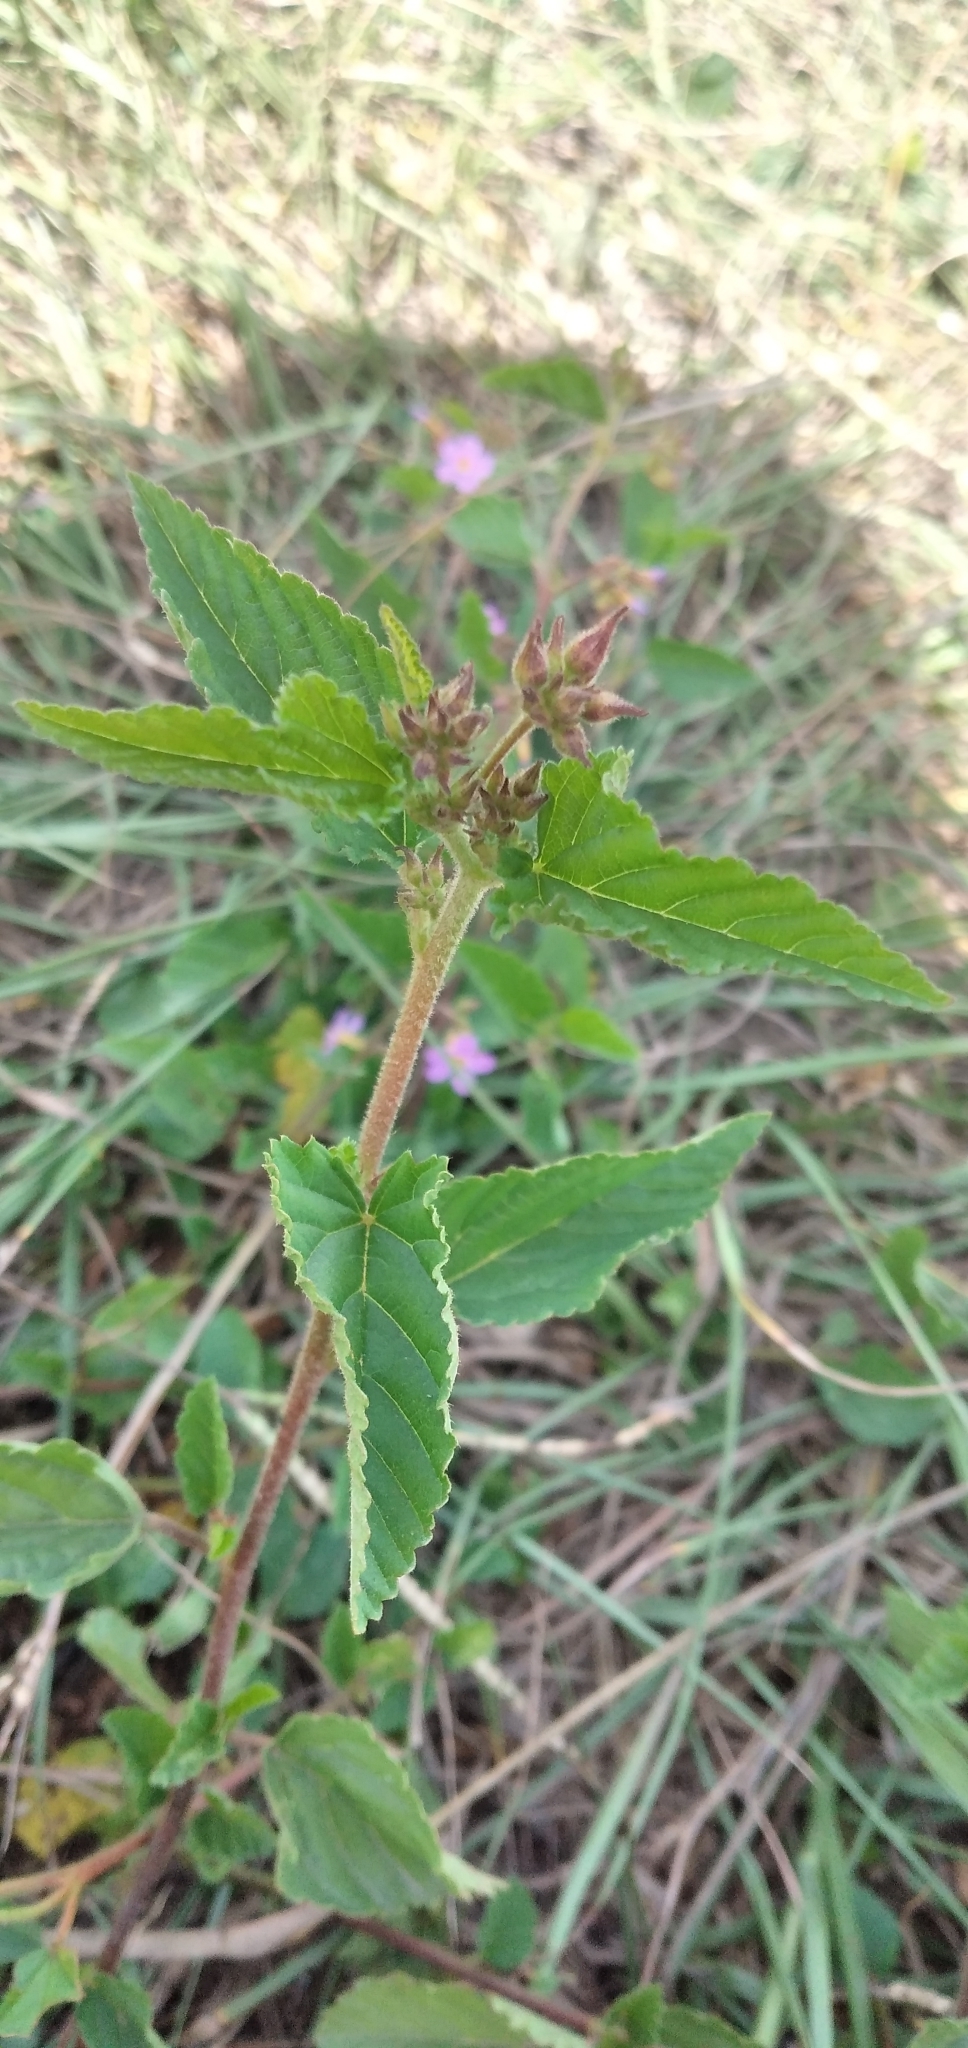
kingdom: Plantae
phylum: Tracheophyta
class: Magnoliopsida
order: Malvales
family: Malvaceae
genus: Melochia
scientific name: Melochia pyramidata
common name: Pyramidflower
